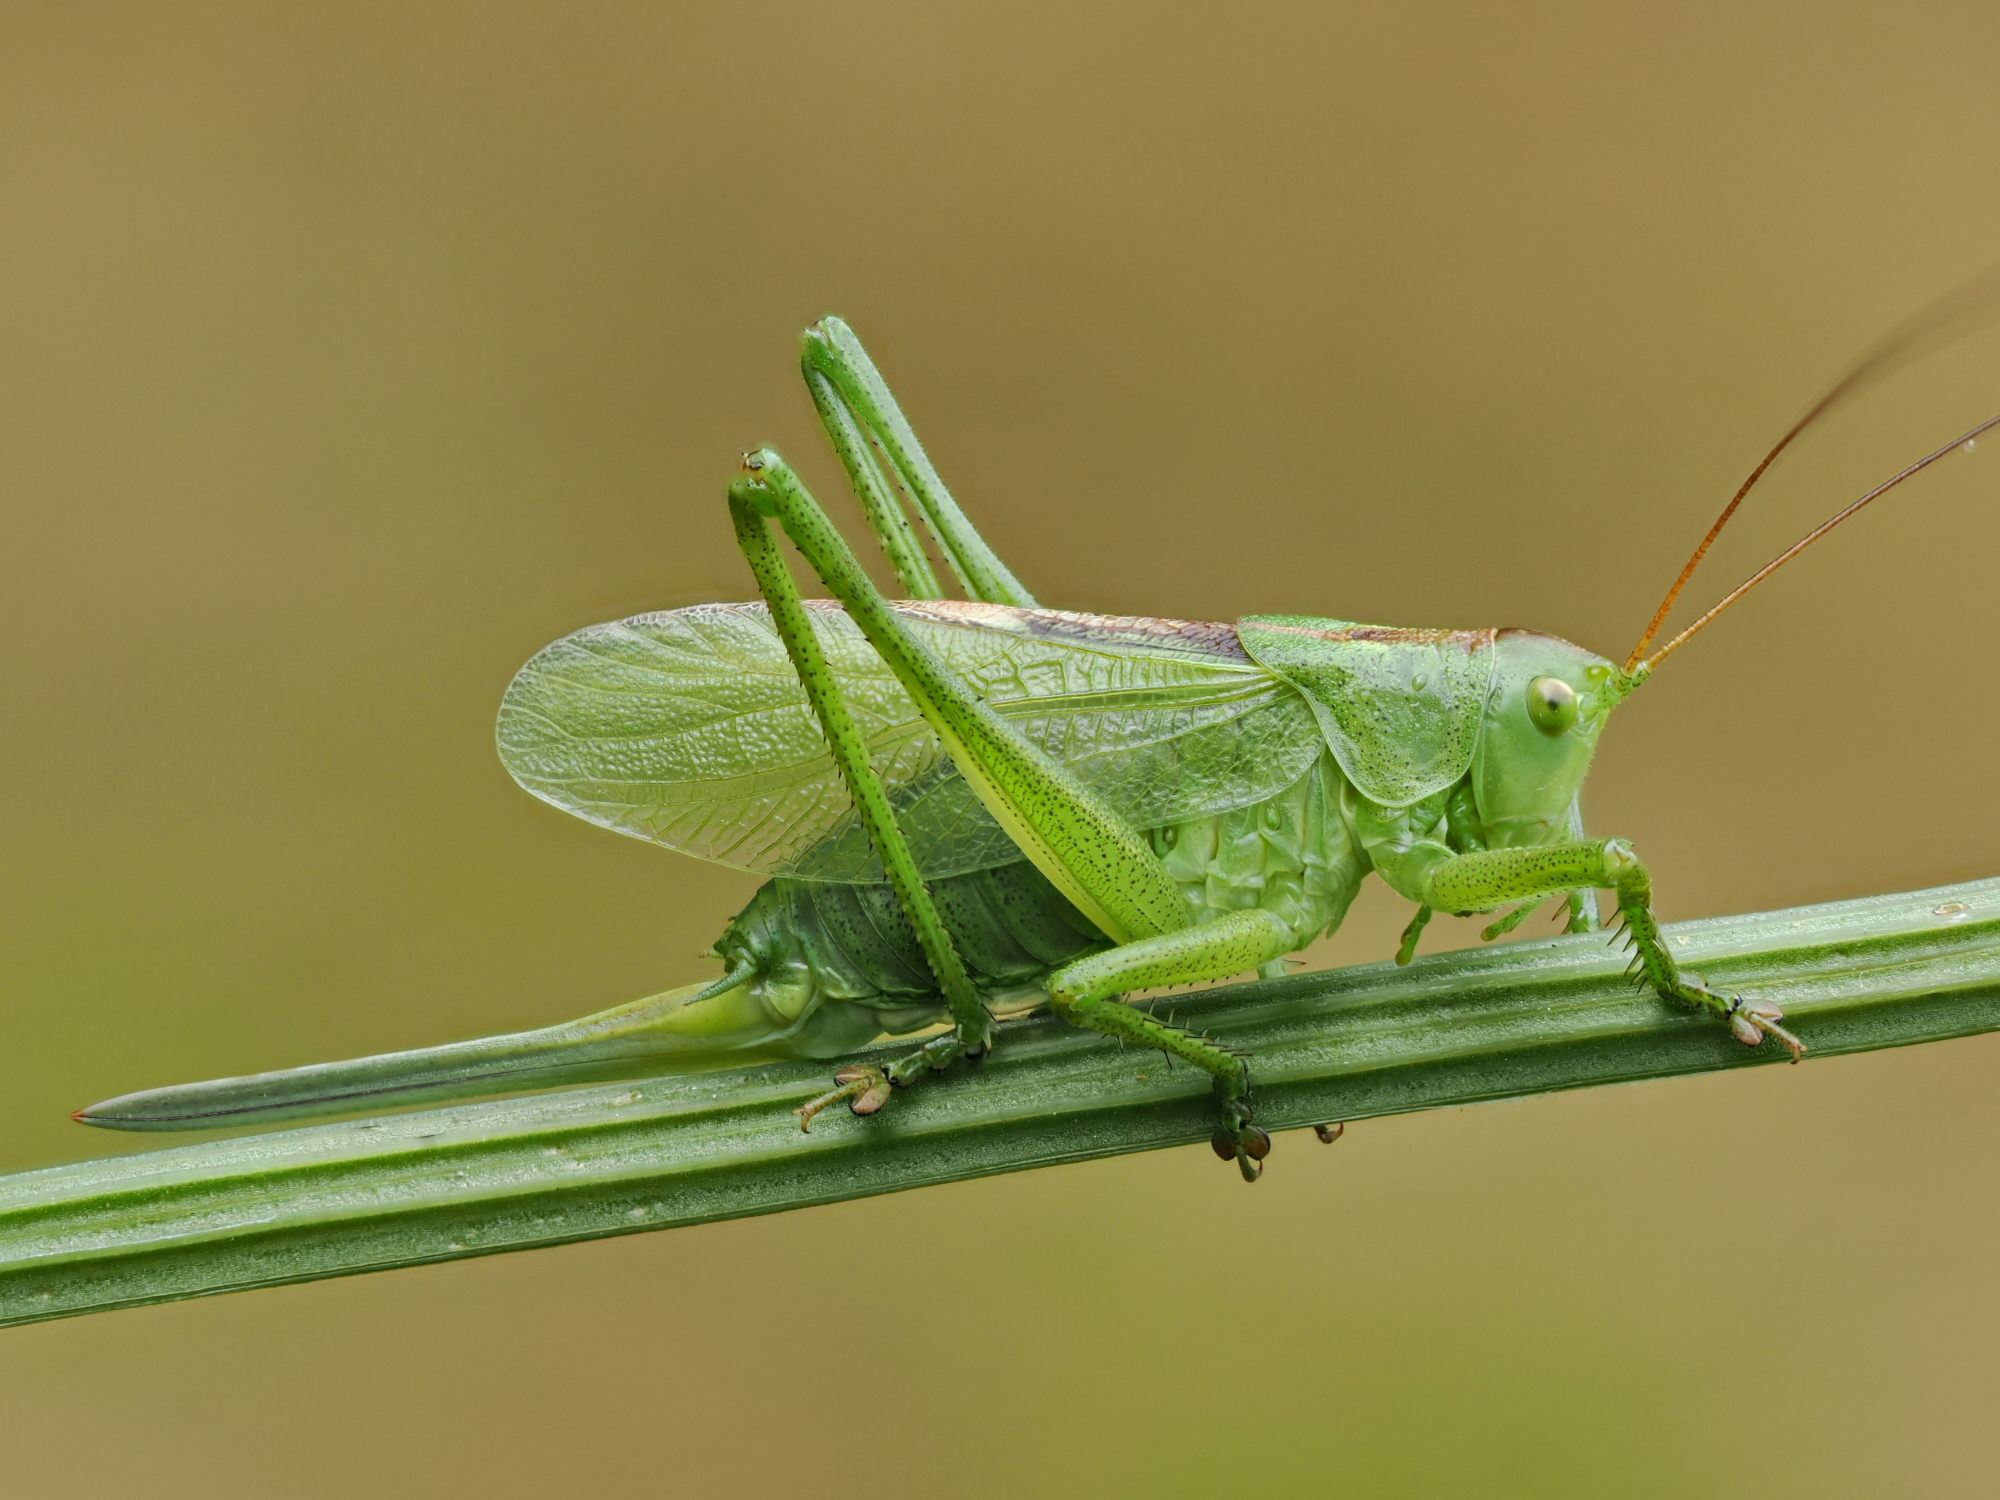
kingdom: Animalia
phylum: Arthropoda
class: Insecta
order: Orthoptera
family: Tettigoniidae
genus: Tettigonia
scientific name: Tettigonia cantans
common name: Upland green bush-cricket
